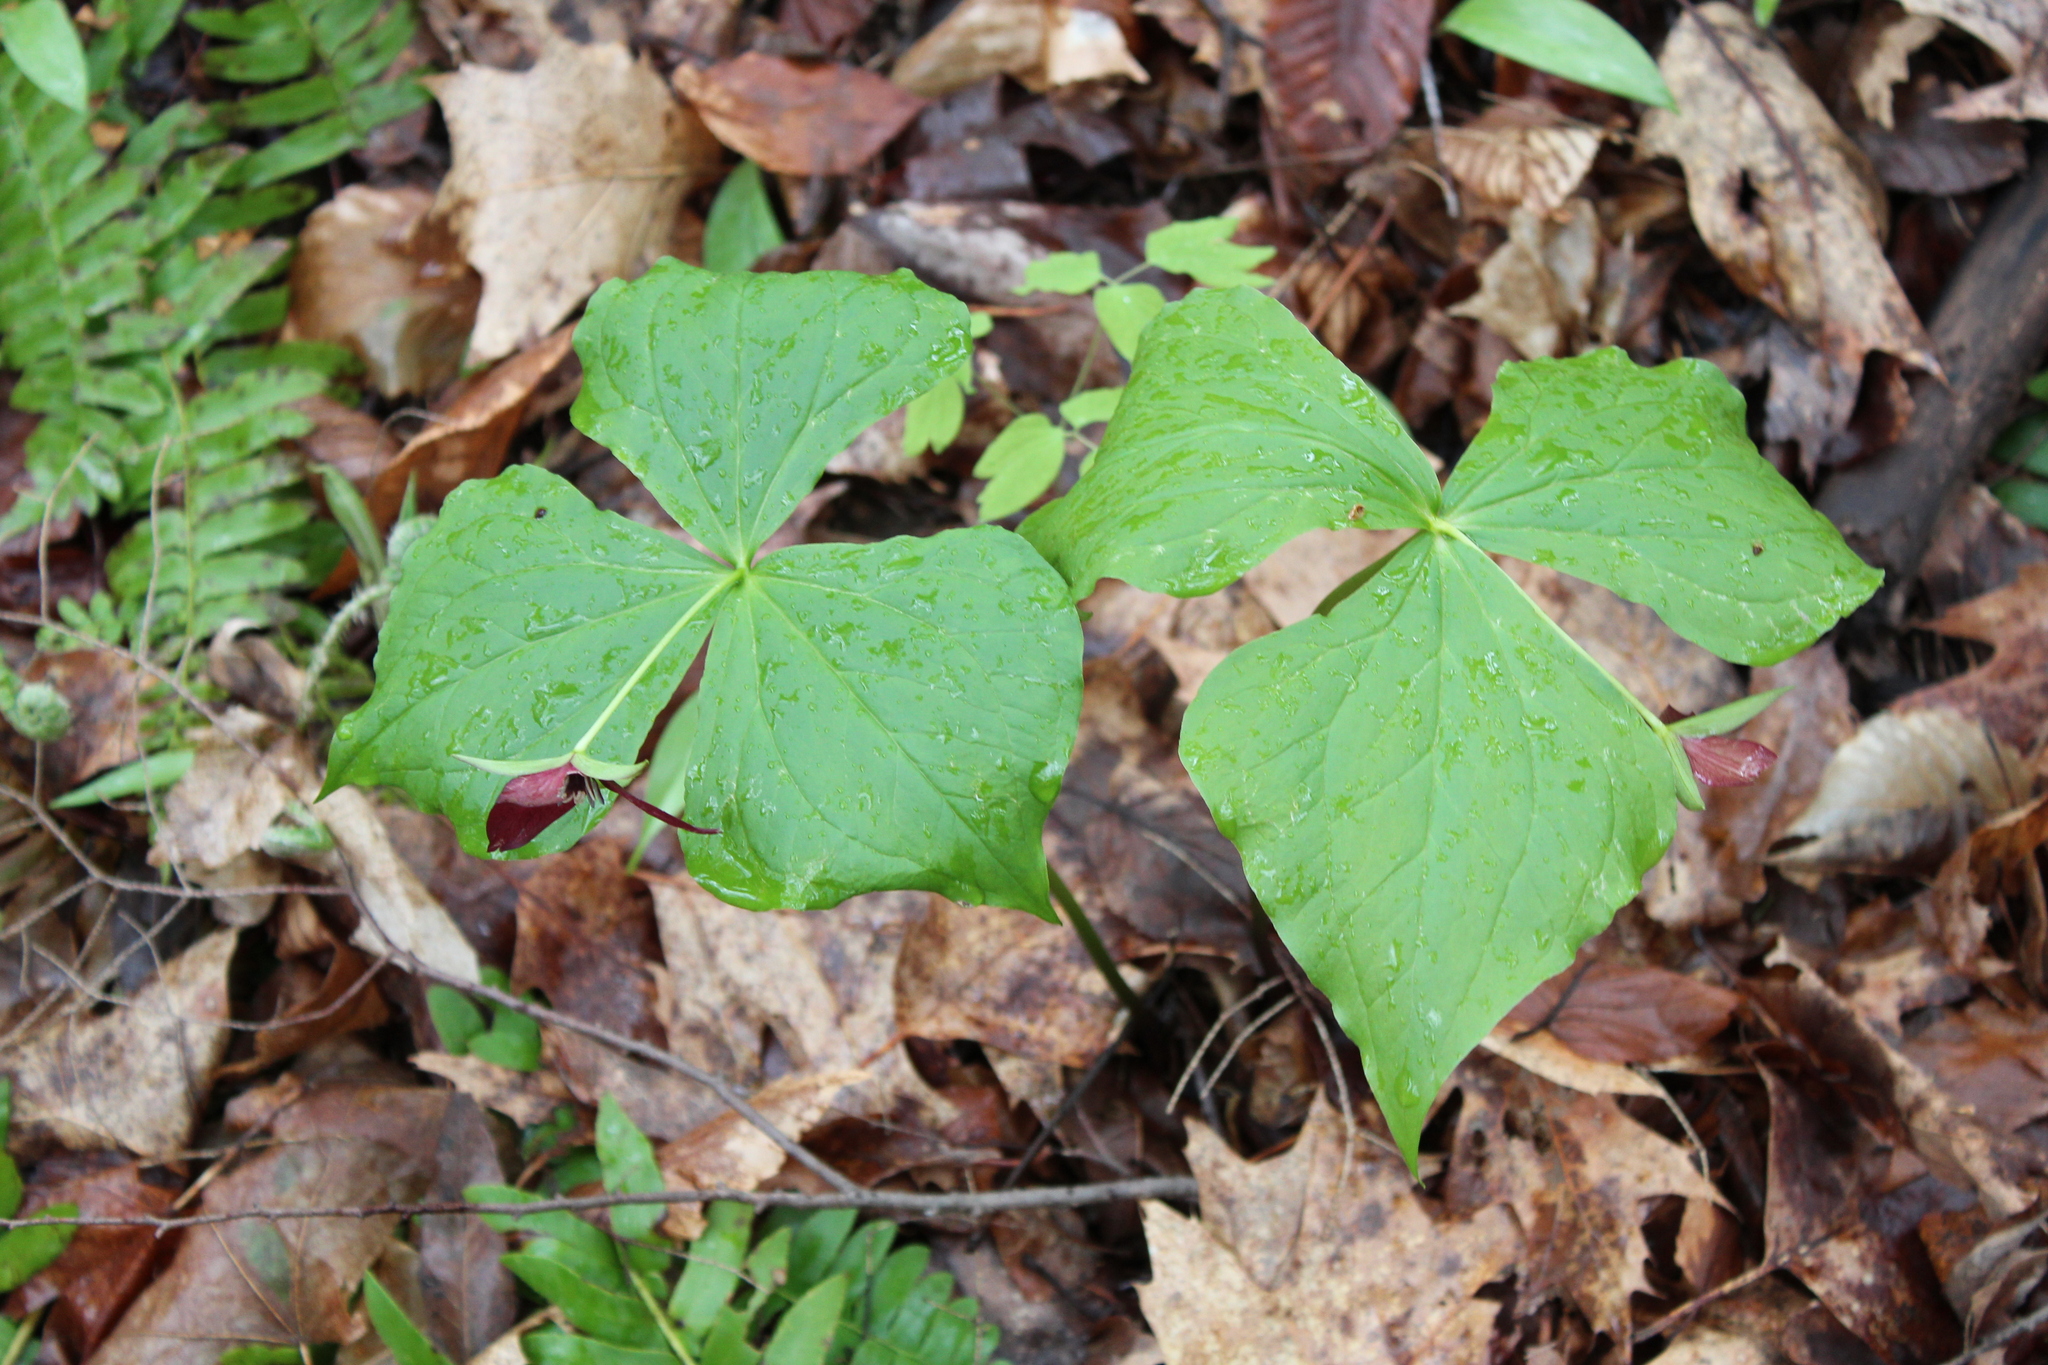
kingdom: Plantae
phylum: Tracheophyta
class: Liliopsida
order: Liliales
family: Melanthiaceae
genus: Trillium
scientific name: Trillium erectum
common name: Purple trillium
